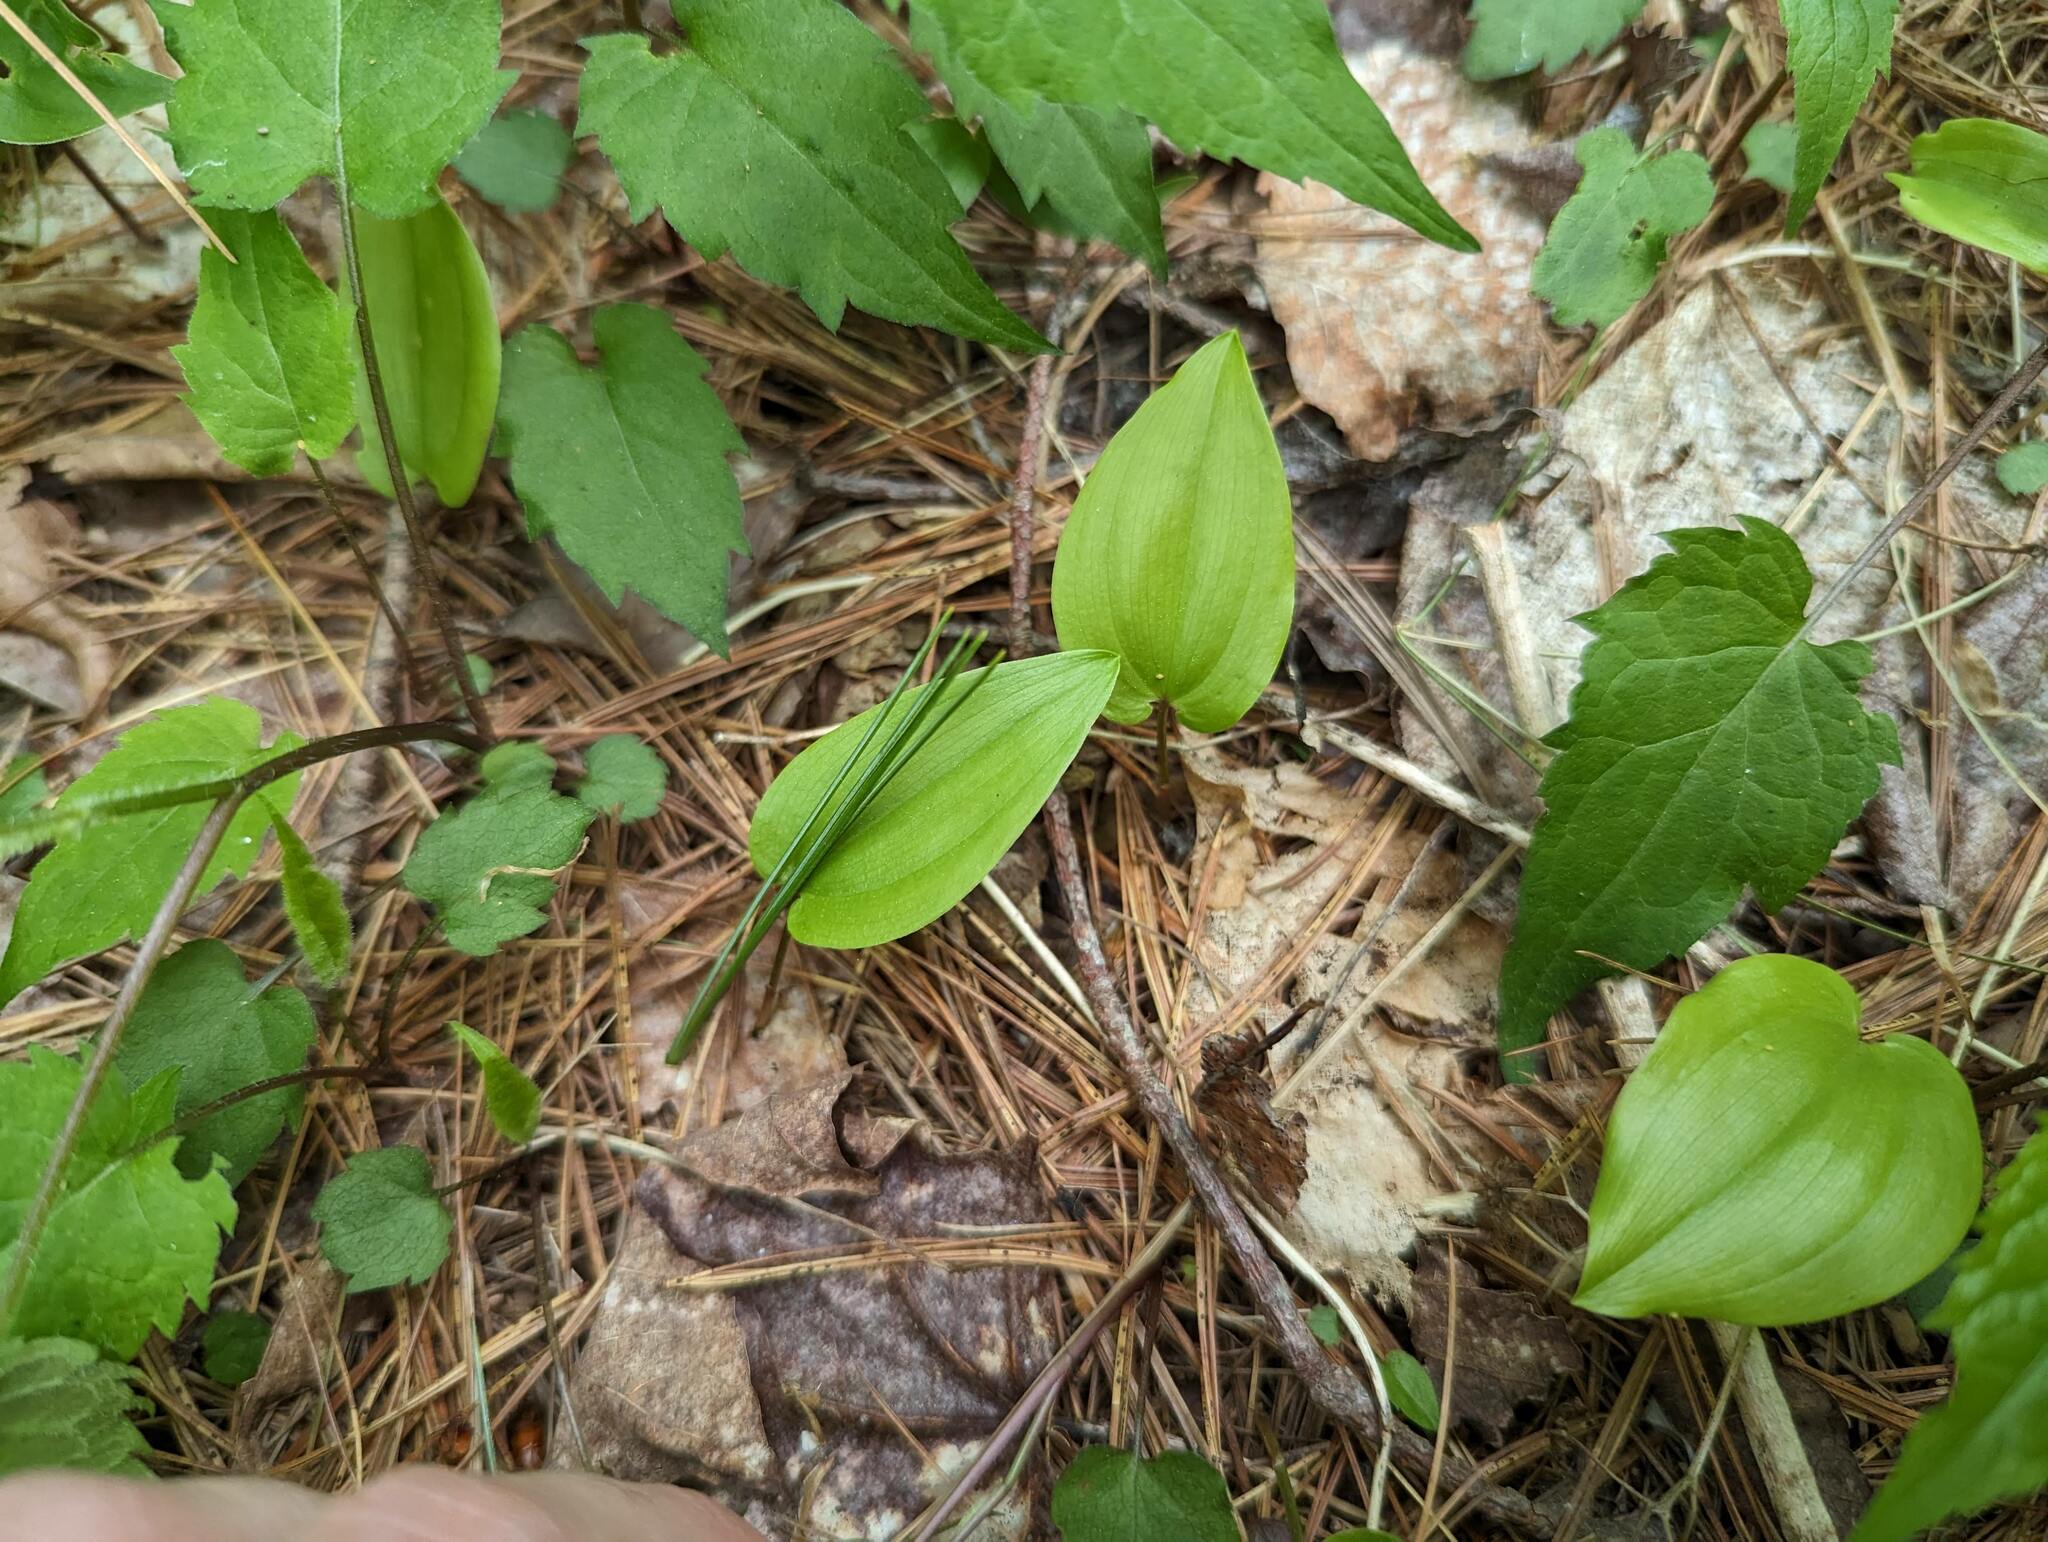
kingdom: Plantae
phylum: Tracheophyta
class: Liliopsida
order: Asparagales
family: Asparagaceae
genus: Maianthemum
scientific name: Maianthemum canadense
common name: False lily-of-the-valley
